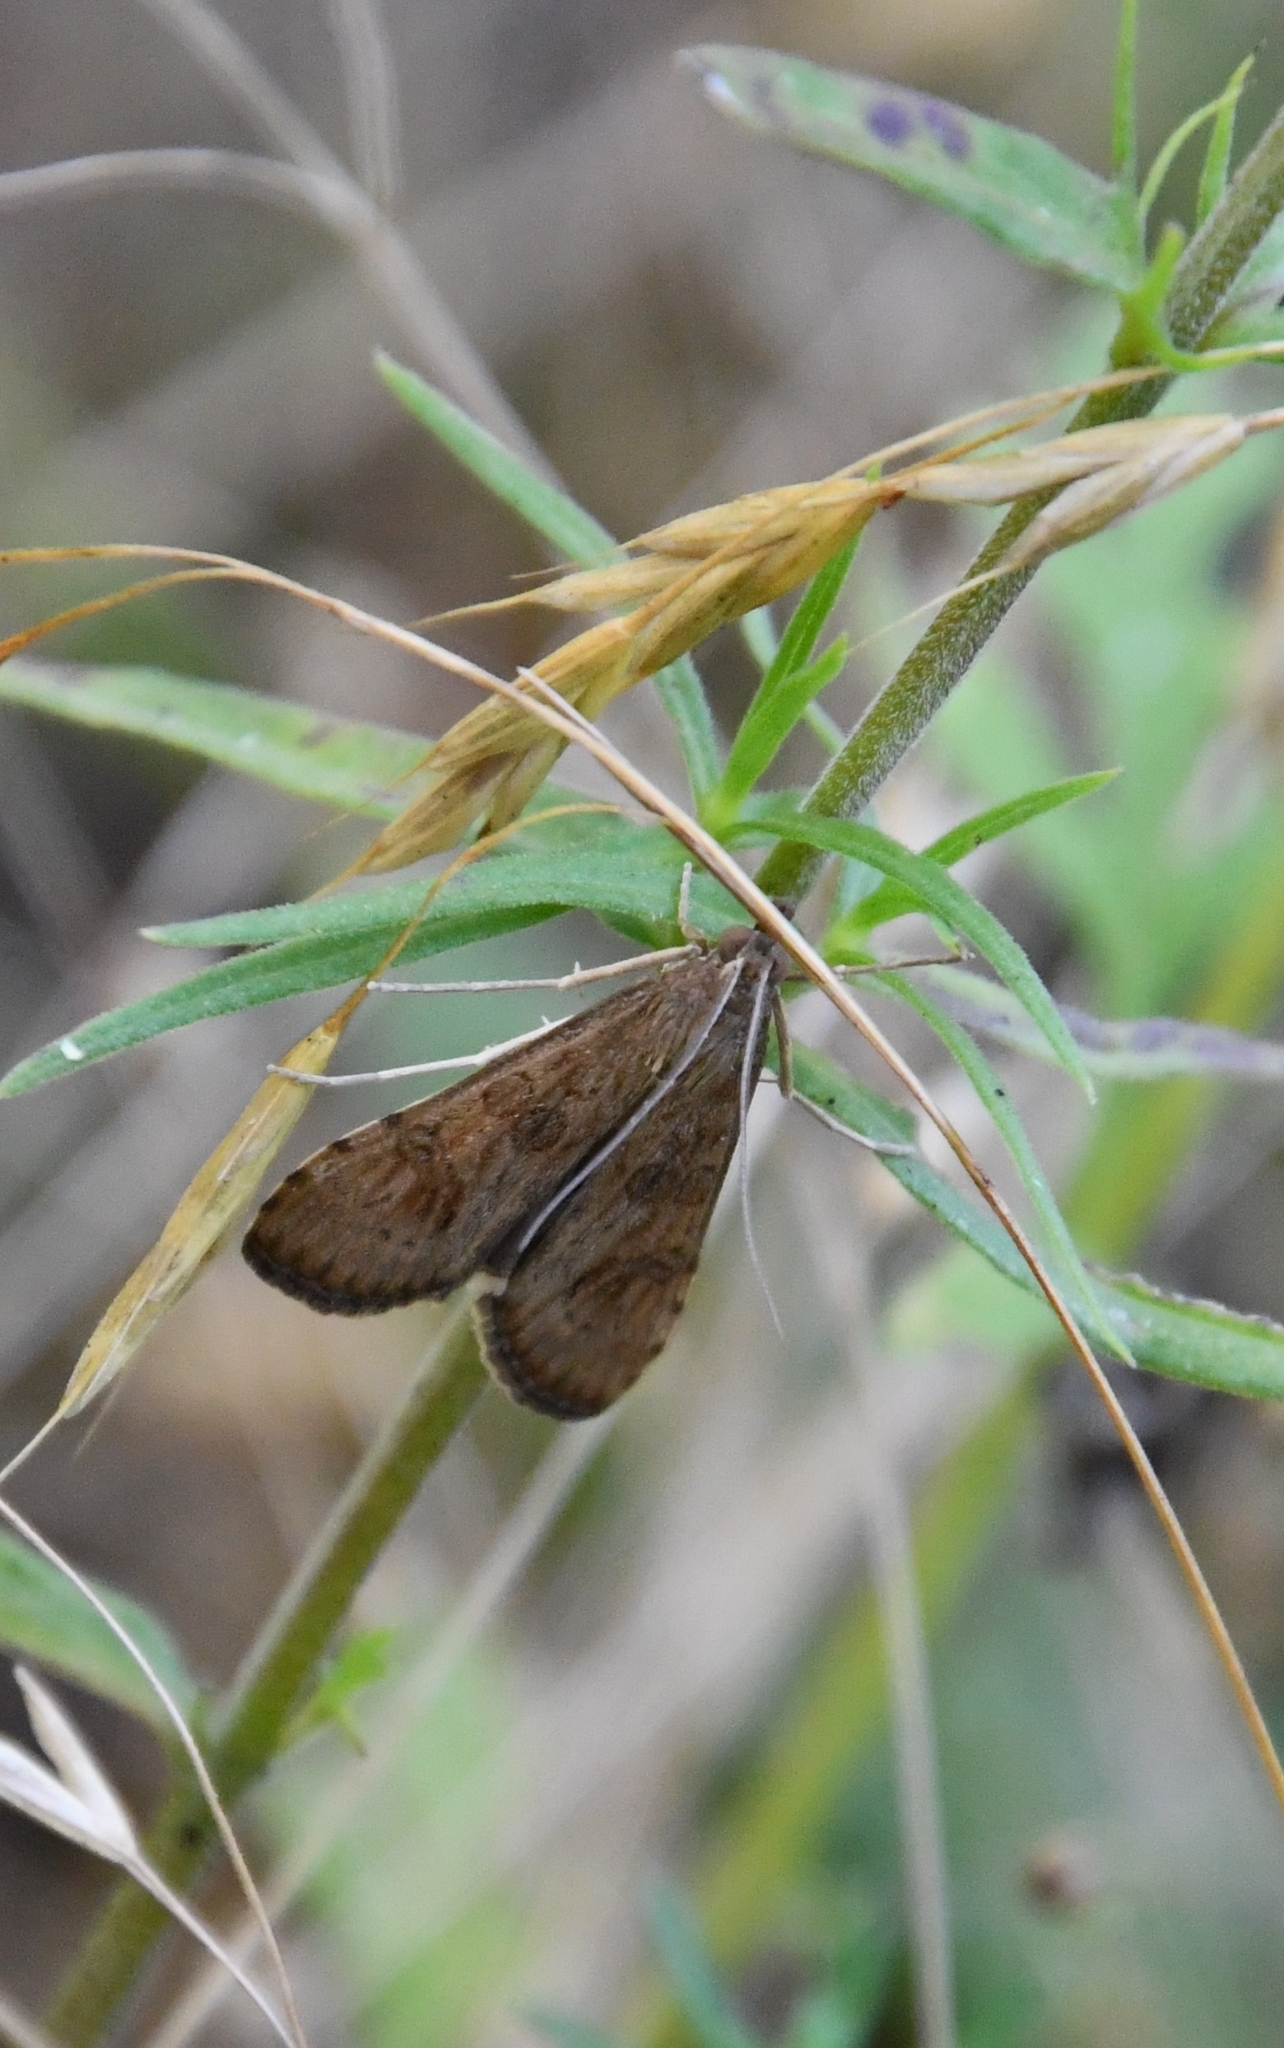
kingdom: Animalia
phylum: Arthropoda
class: Insecta
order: Lepidoptera
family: Crambidae
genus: Nomophila
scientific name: Nomophila noctuella
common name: Rush veneer
